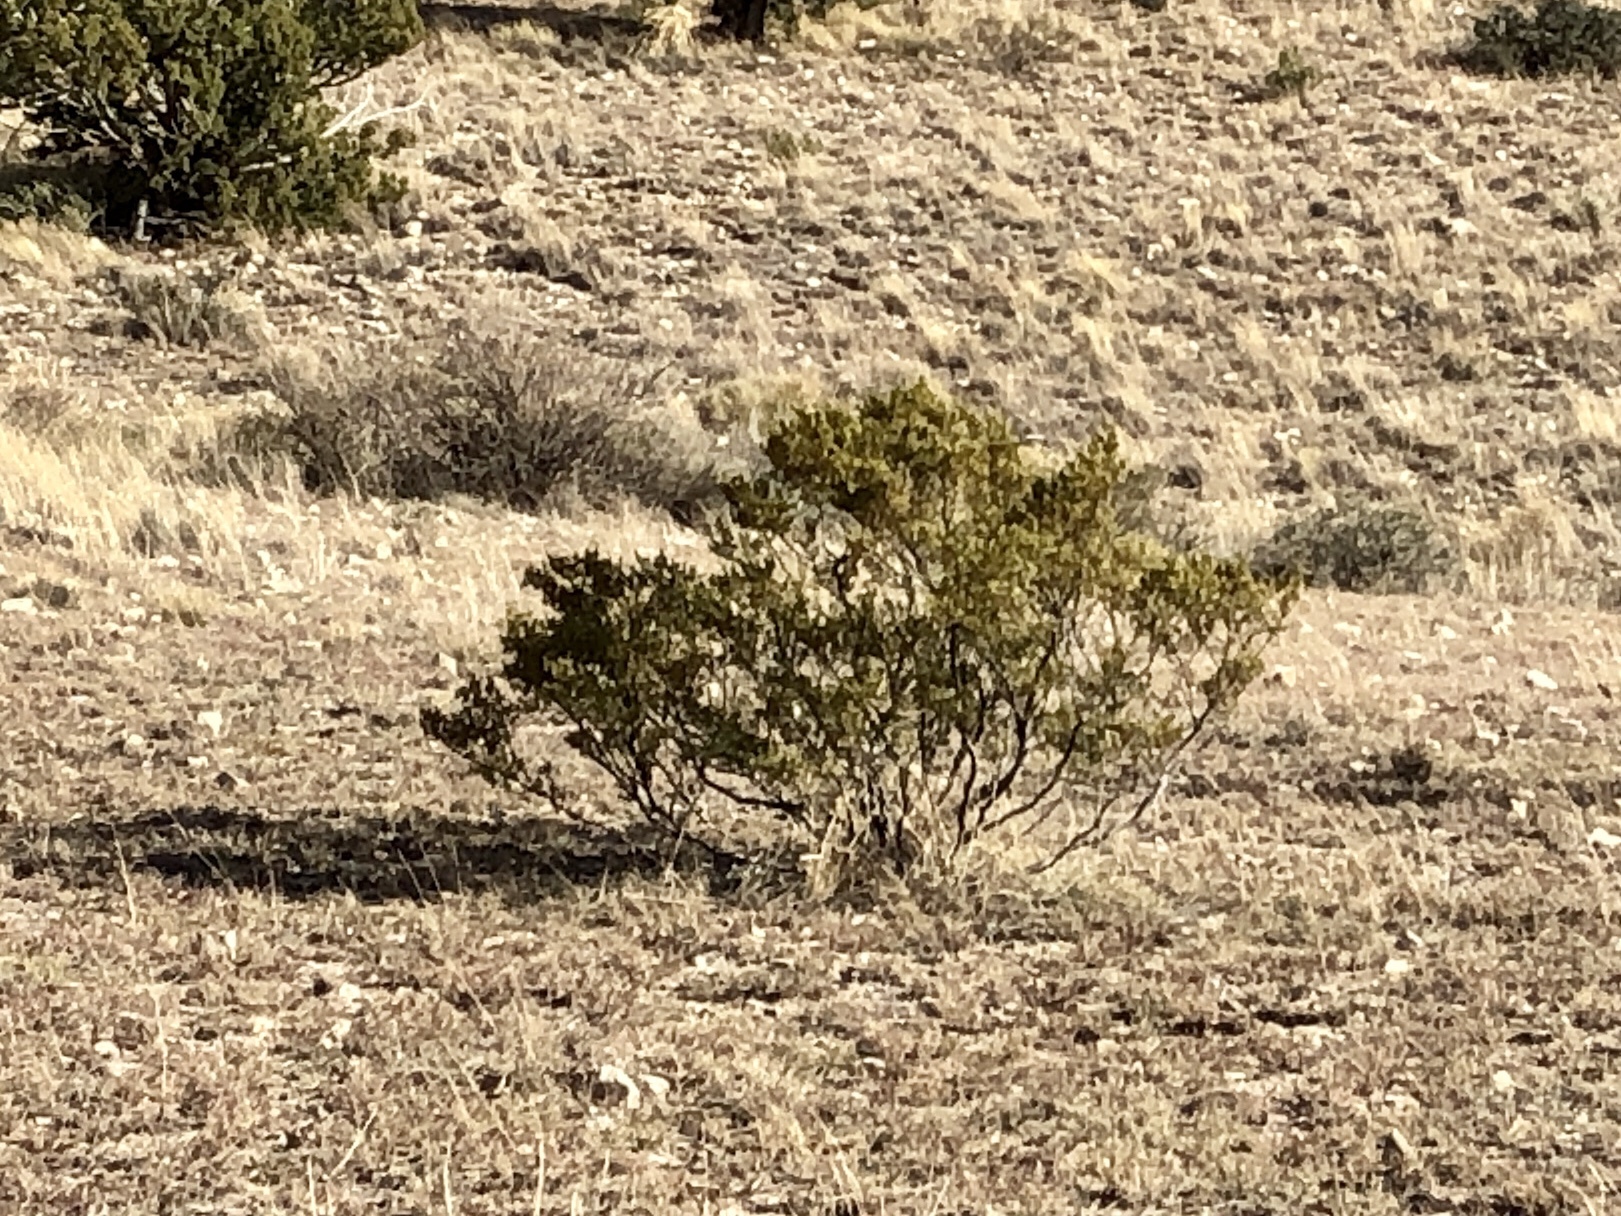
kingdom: Plantae
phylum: Tracheophyta
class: Magnoliopsida
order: Zygophyllales
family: Zygophyllaceae
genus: Larrea
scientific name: Larrea tridentata
